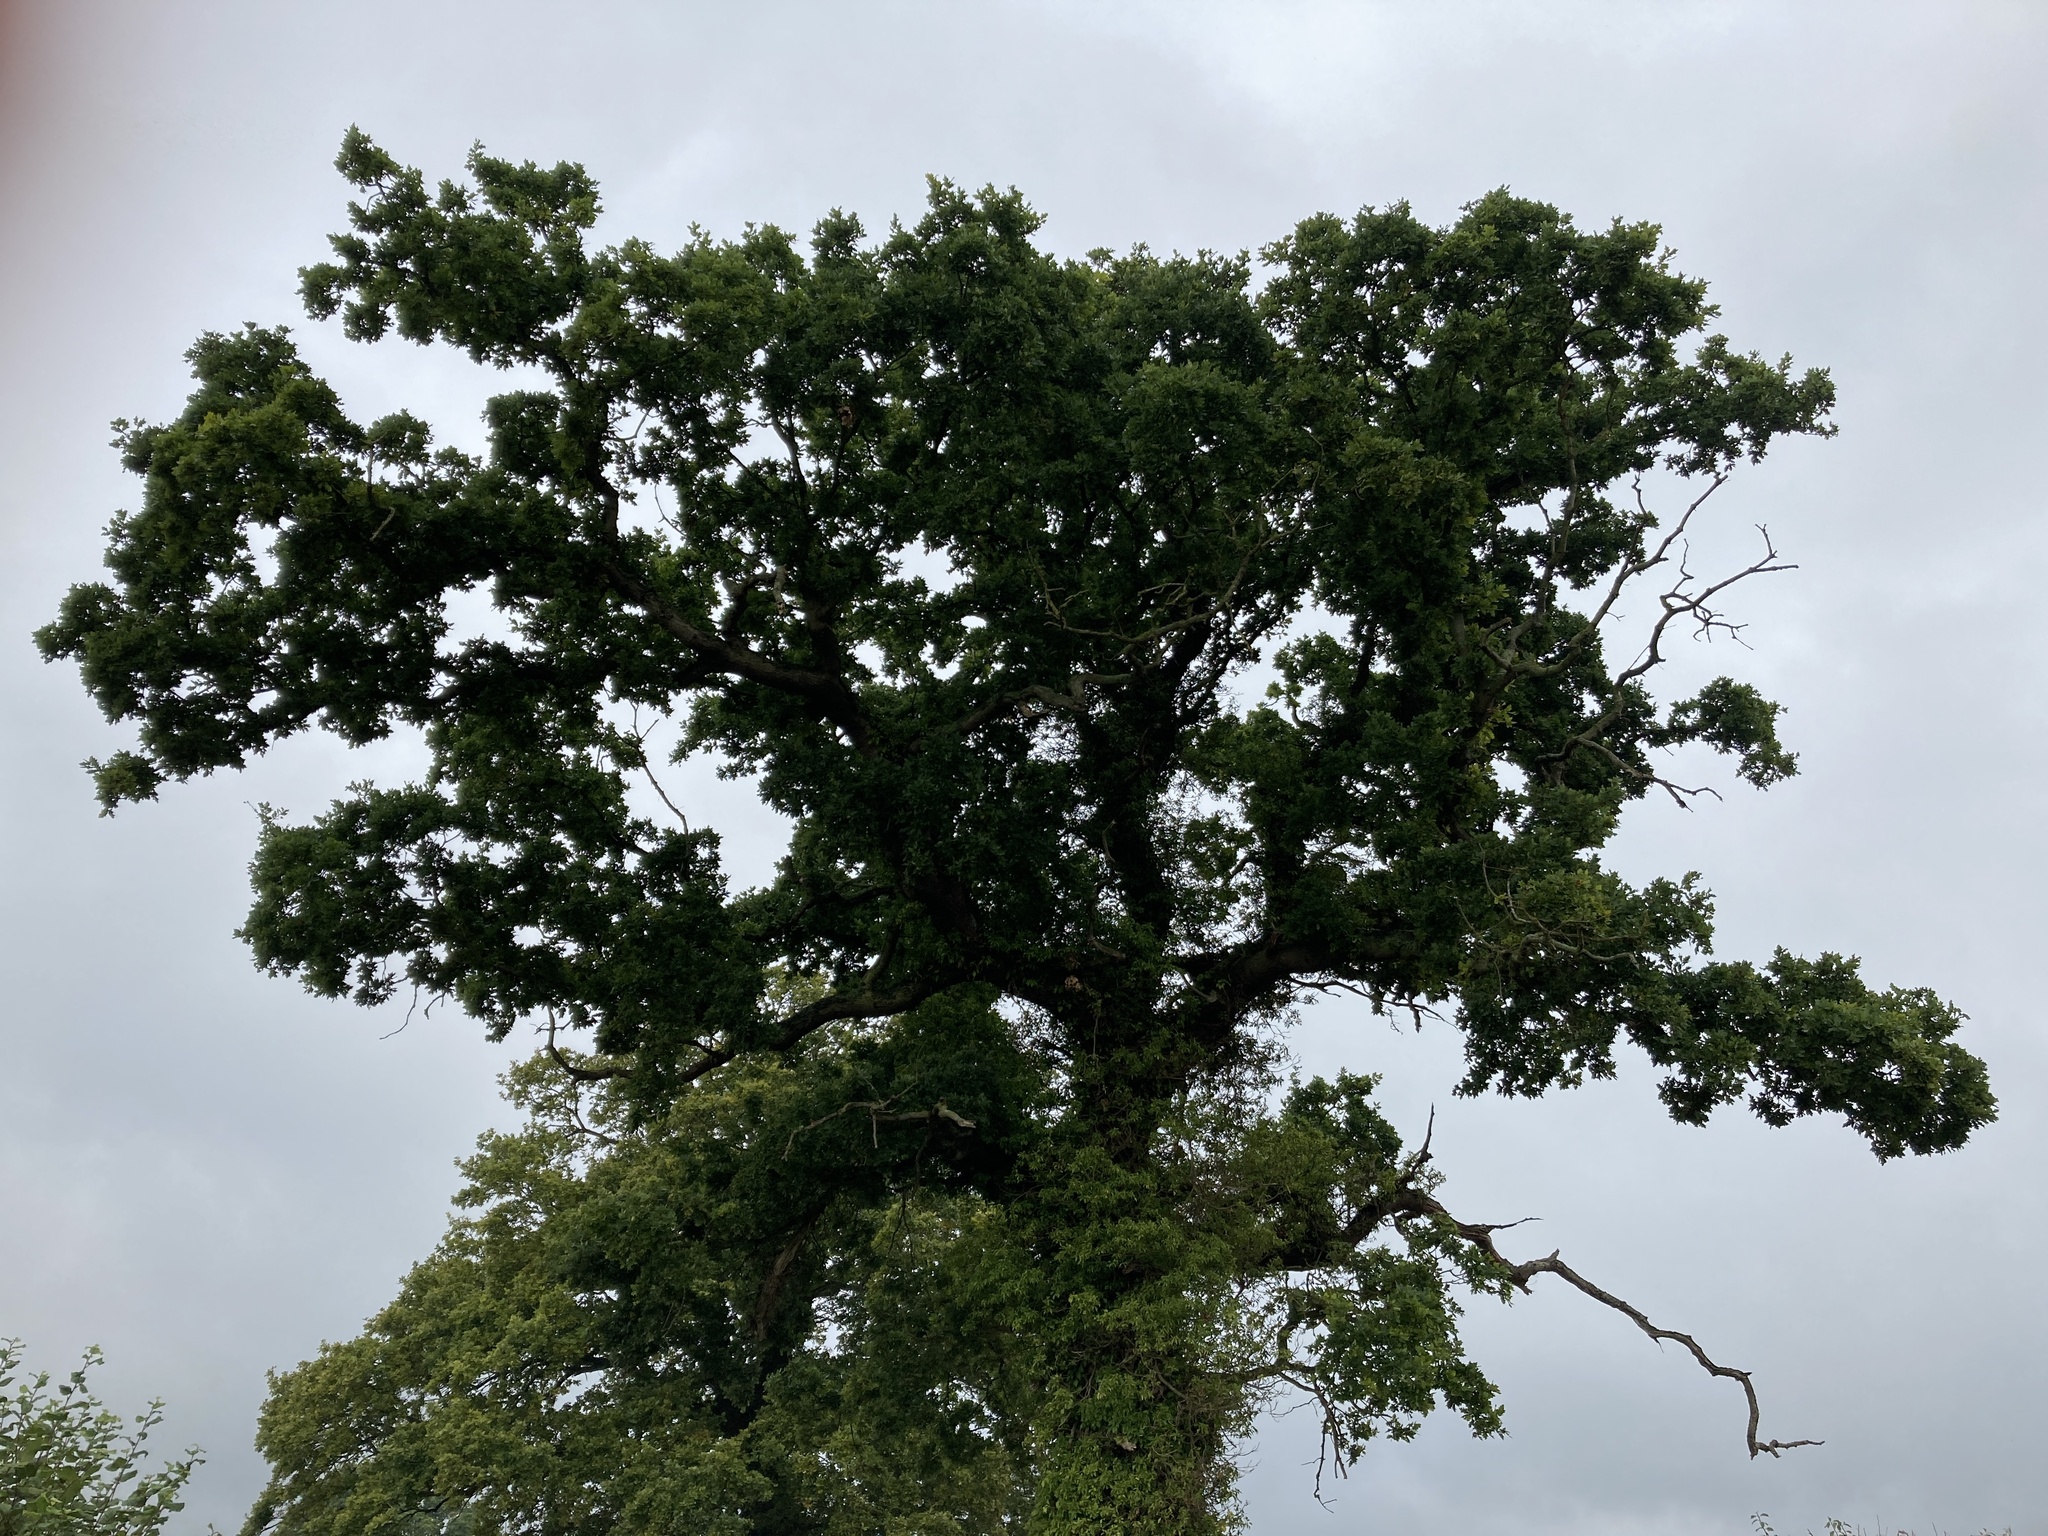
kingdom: Plantae
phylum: Tracheophyta
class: Magnoliopsida
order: Fagales
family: Fagaceae
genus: Quercus
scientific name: Quercus robur
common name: Pedunculate oak
